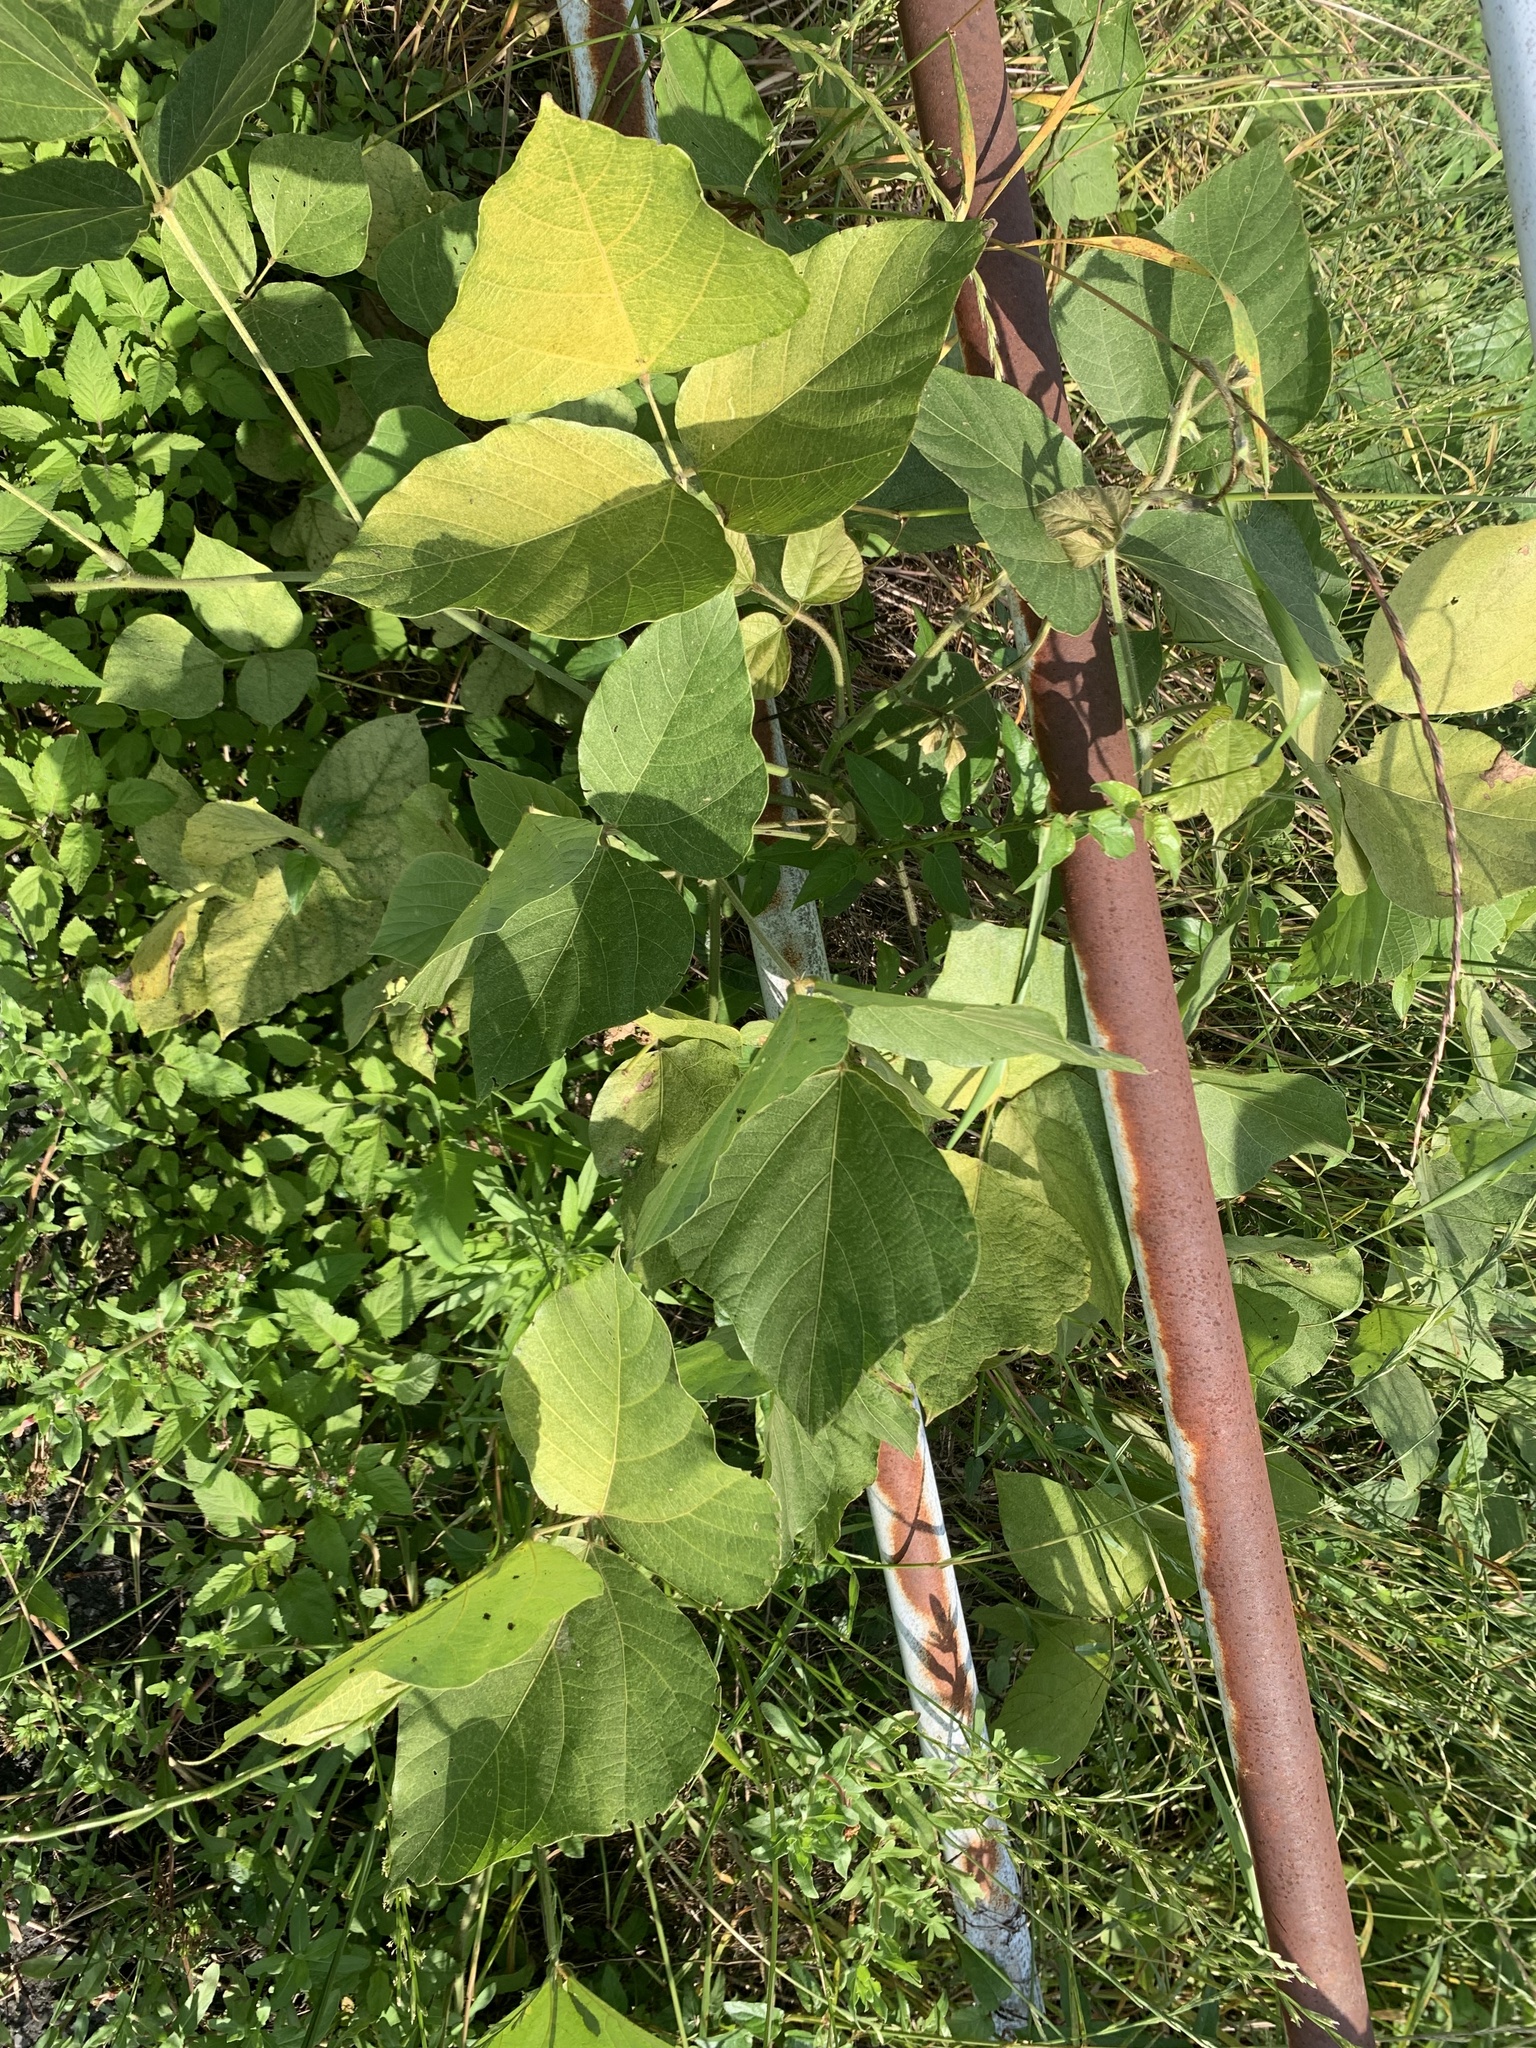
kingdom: Plantae
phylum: Tracheophyta
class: Magnoliopsida
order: Fabales
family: Fabaceae
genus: Pueraria
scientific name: Pueraria montana
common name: Kudzu
